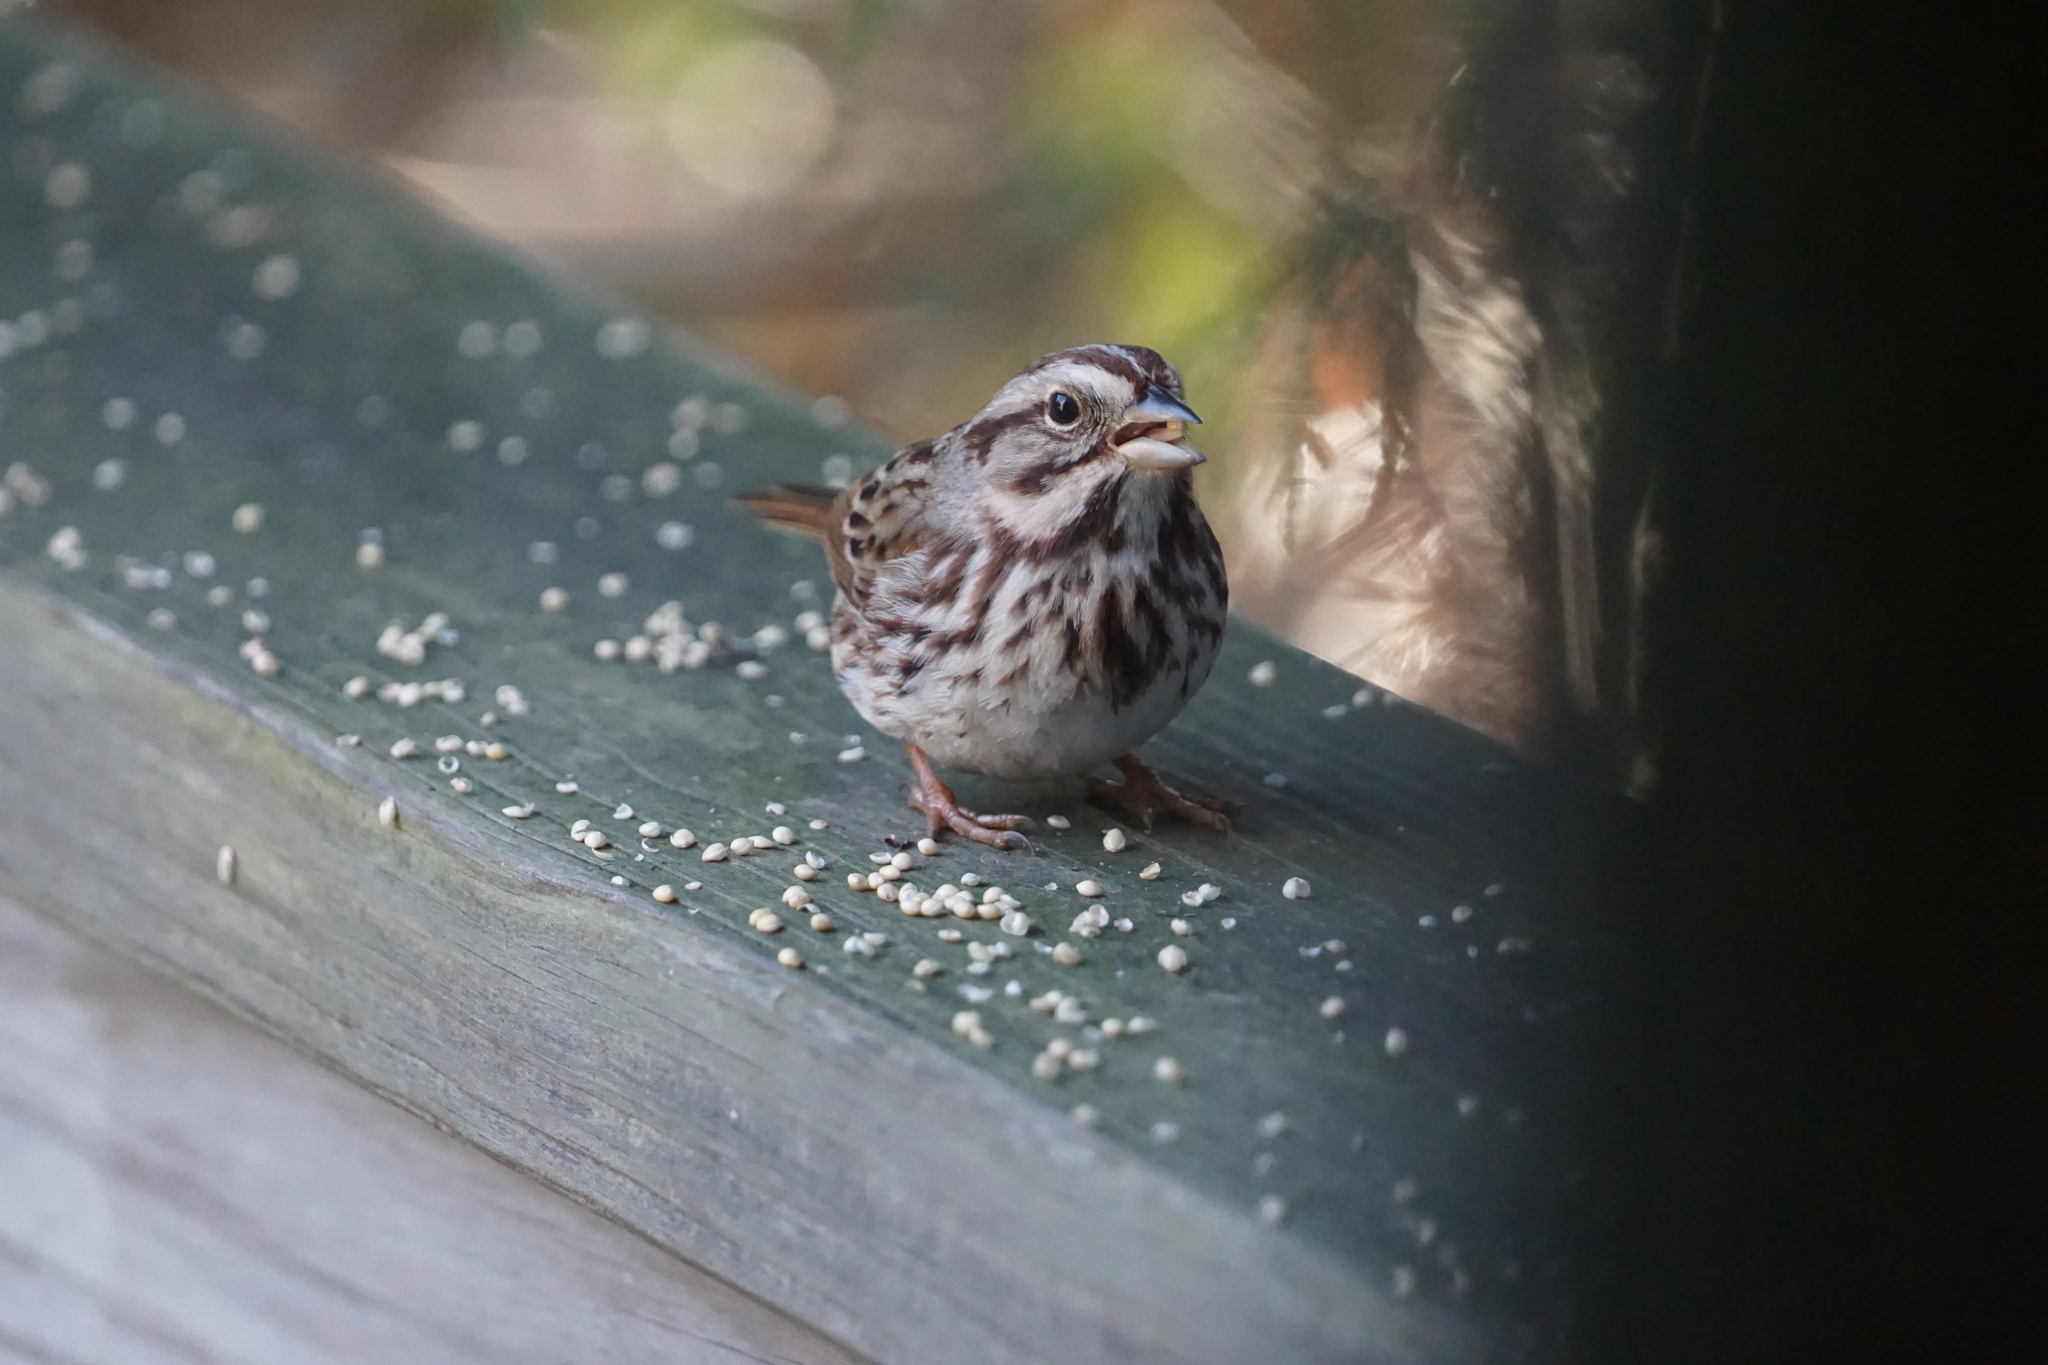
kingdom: Animalia
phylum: Chordata
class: Aves
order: Passeriformes
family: Passerellidae
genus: Melospiza
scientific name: Melospiza melodia
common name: Song sparrow
